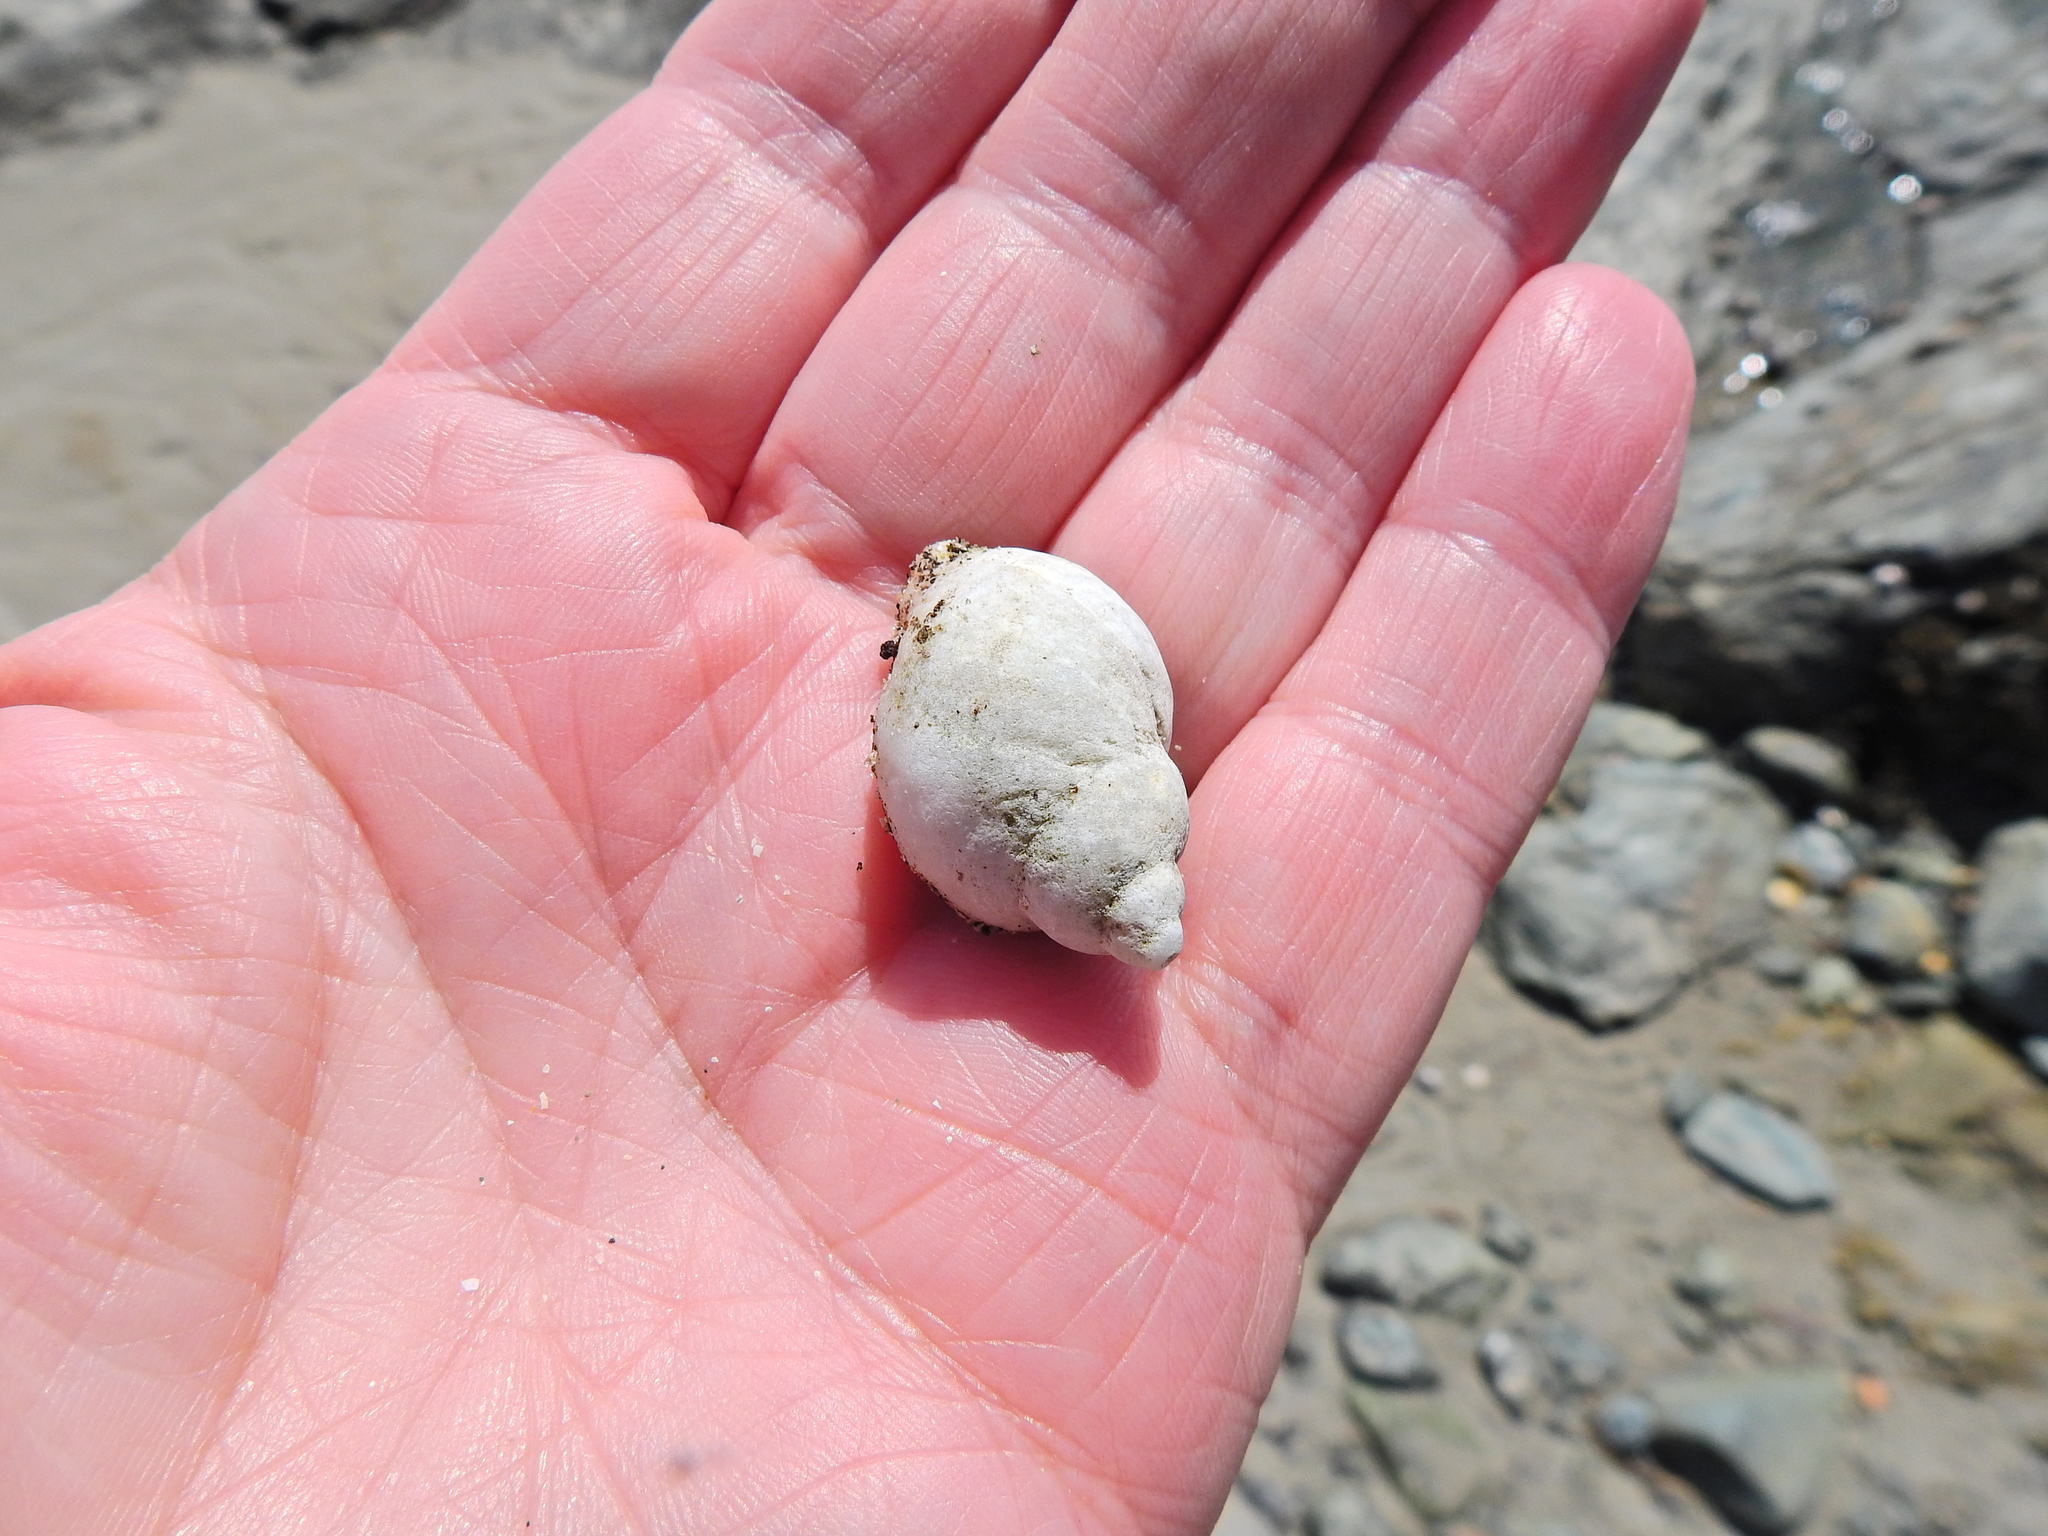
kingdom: Animalia
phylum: Mollusca
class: Gastropoda
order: Neogastropoda
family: Muricidae
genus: Nucella
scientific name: Nucella lapillus
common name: Dog whelk
